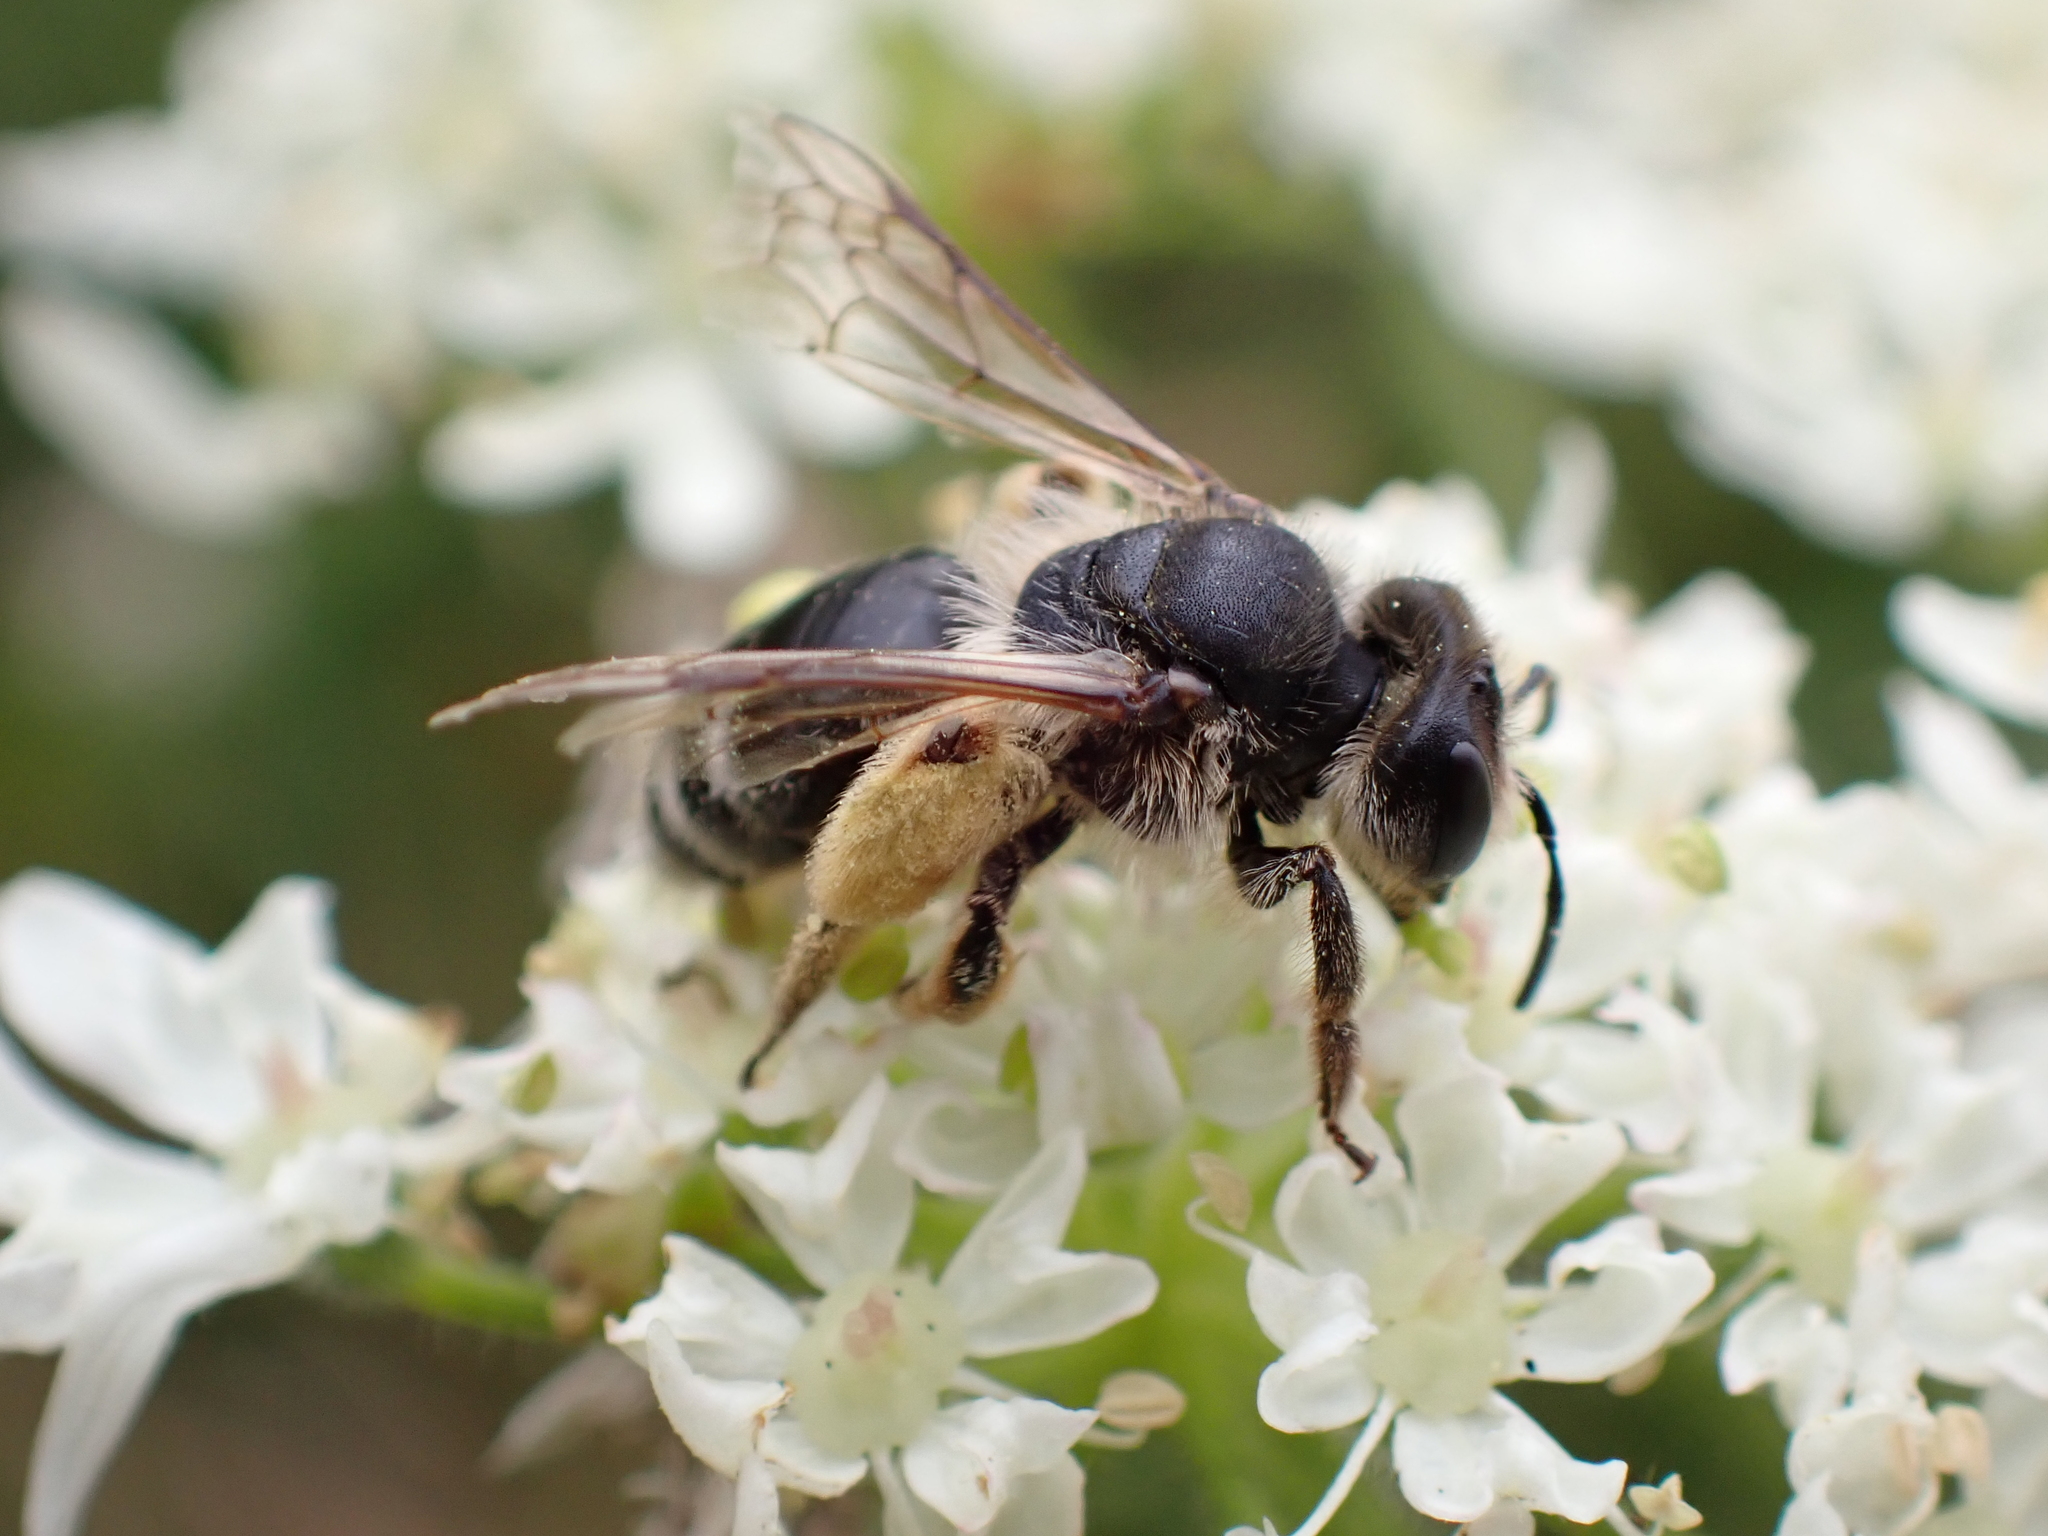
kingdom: Animalia
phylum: Arthropoda
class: Insecta
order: Hymenoptera
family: Andrenidae
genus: Andrena
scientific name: Andrena flavipes
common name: Yellow-legged mining bee
